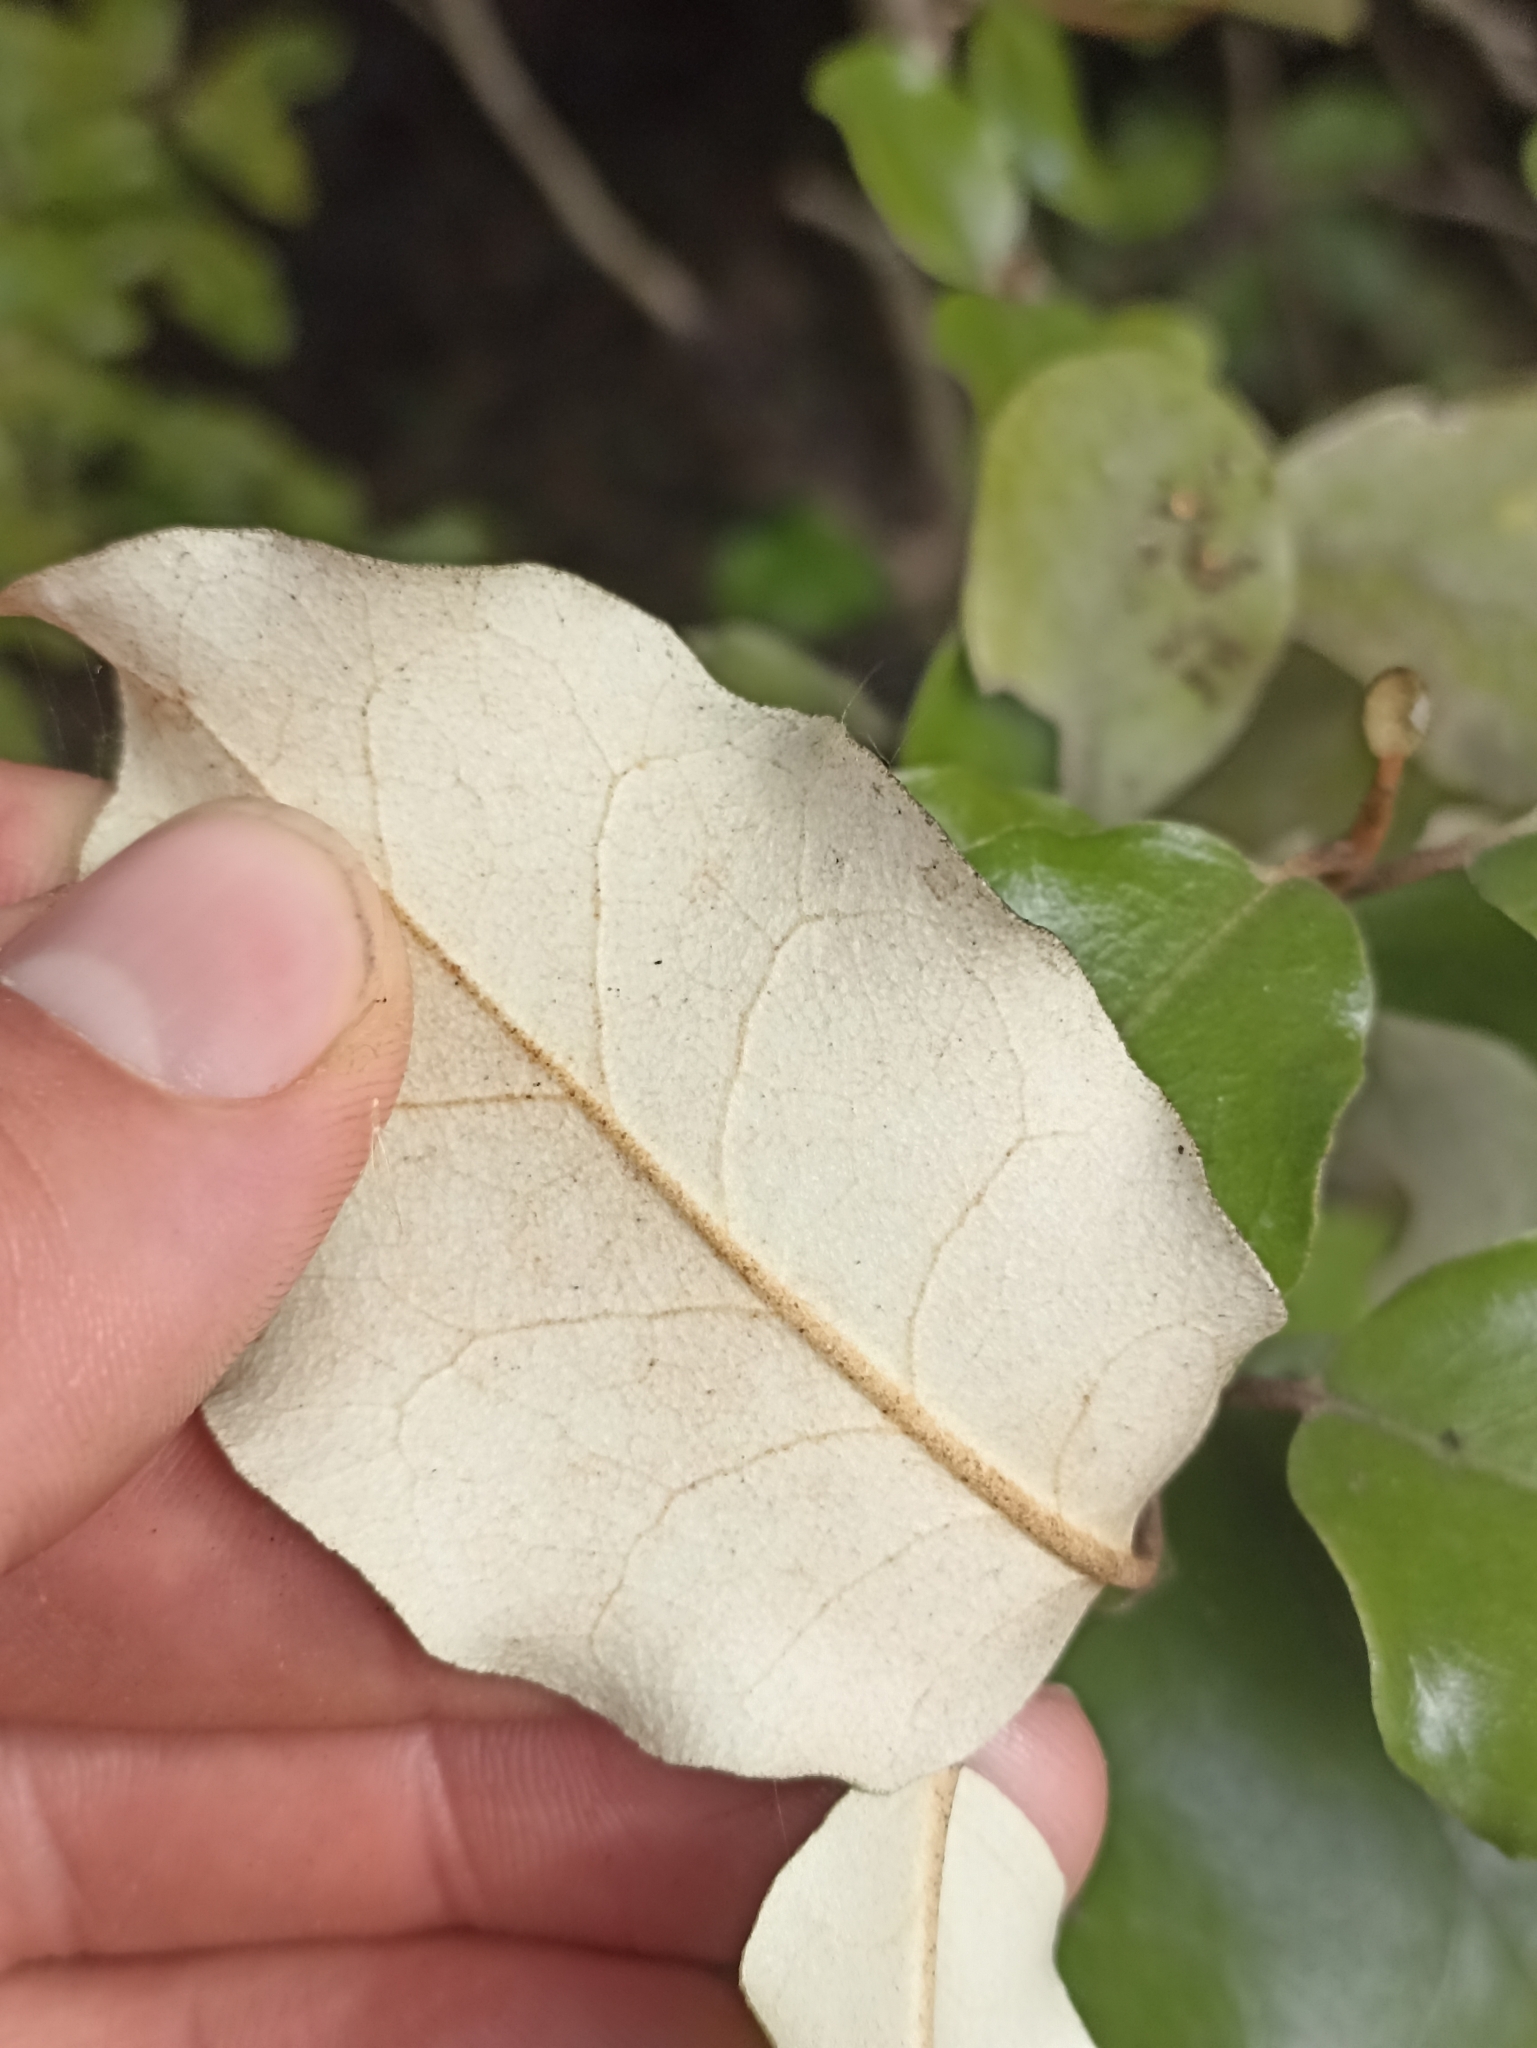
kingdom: Plantae
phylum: Tracheophyta
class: Magnoliopsida
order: Asterales
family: Asteraceae
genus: Olearia
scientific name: Olearia paniculata
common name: Akiraho
